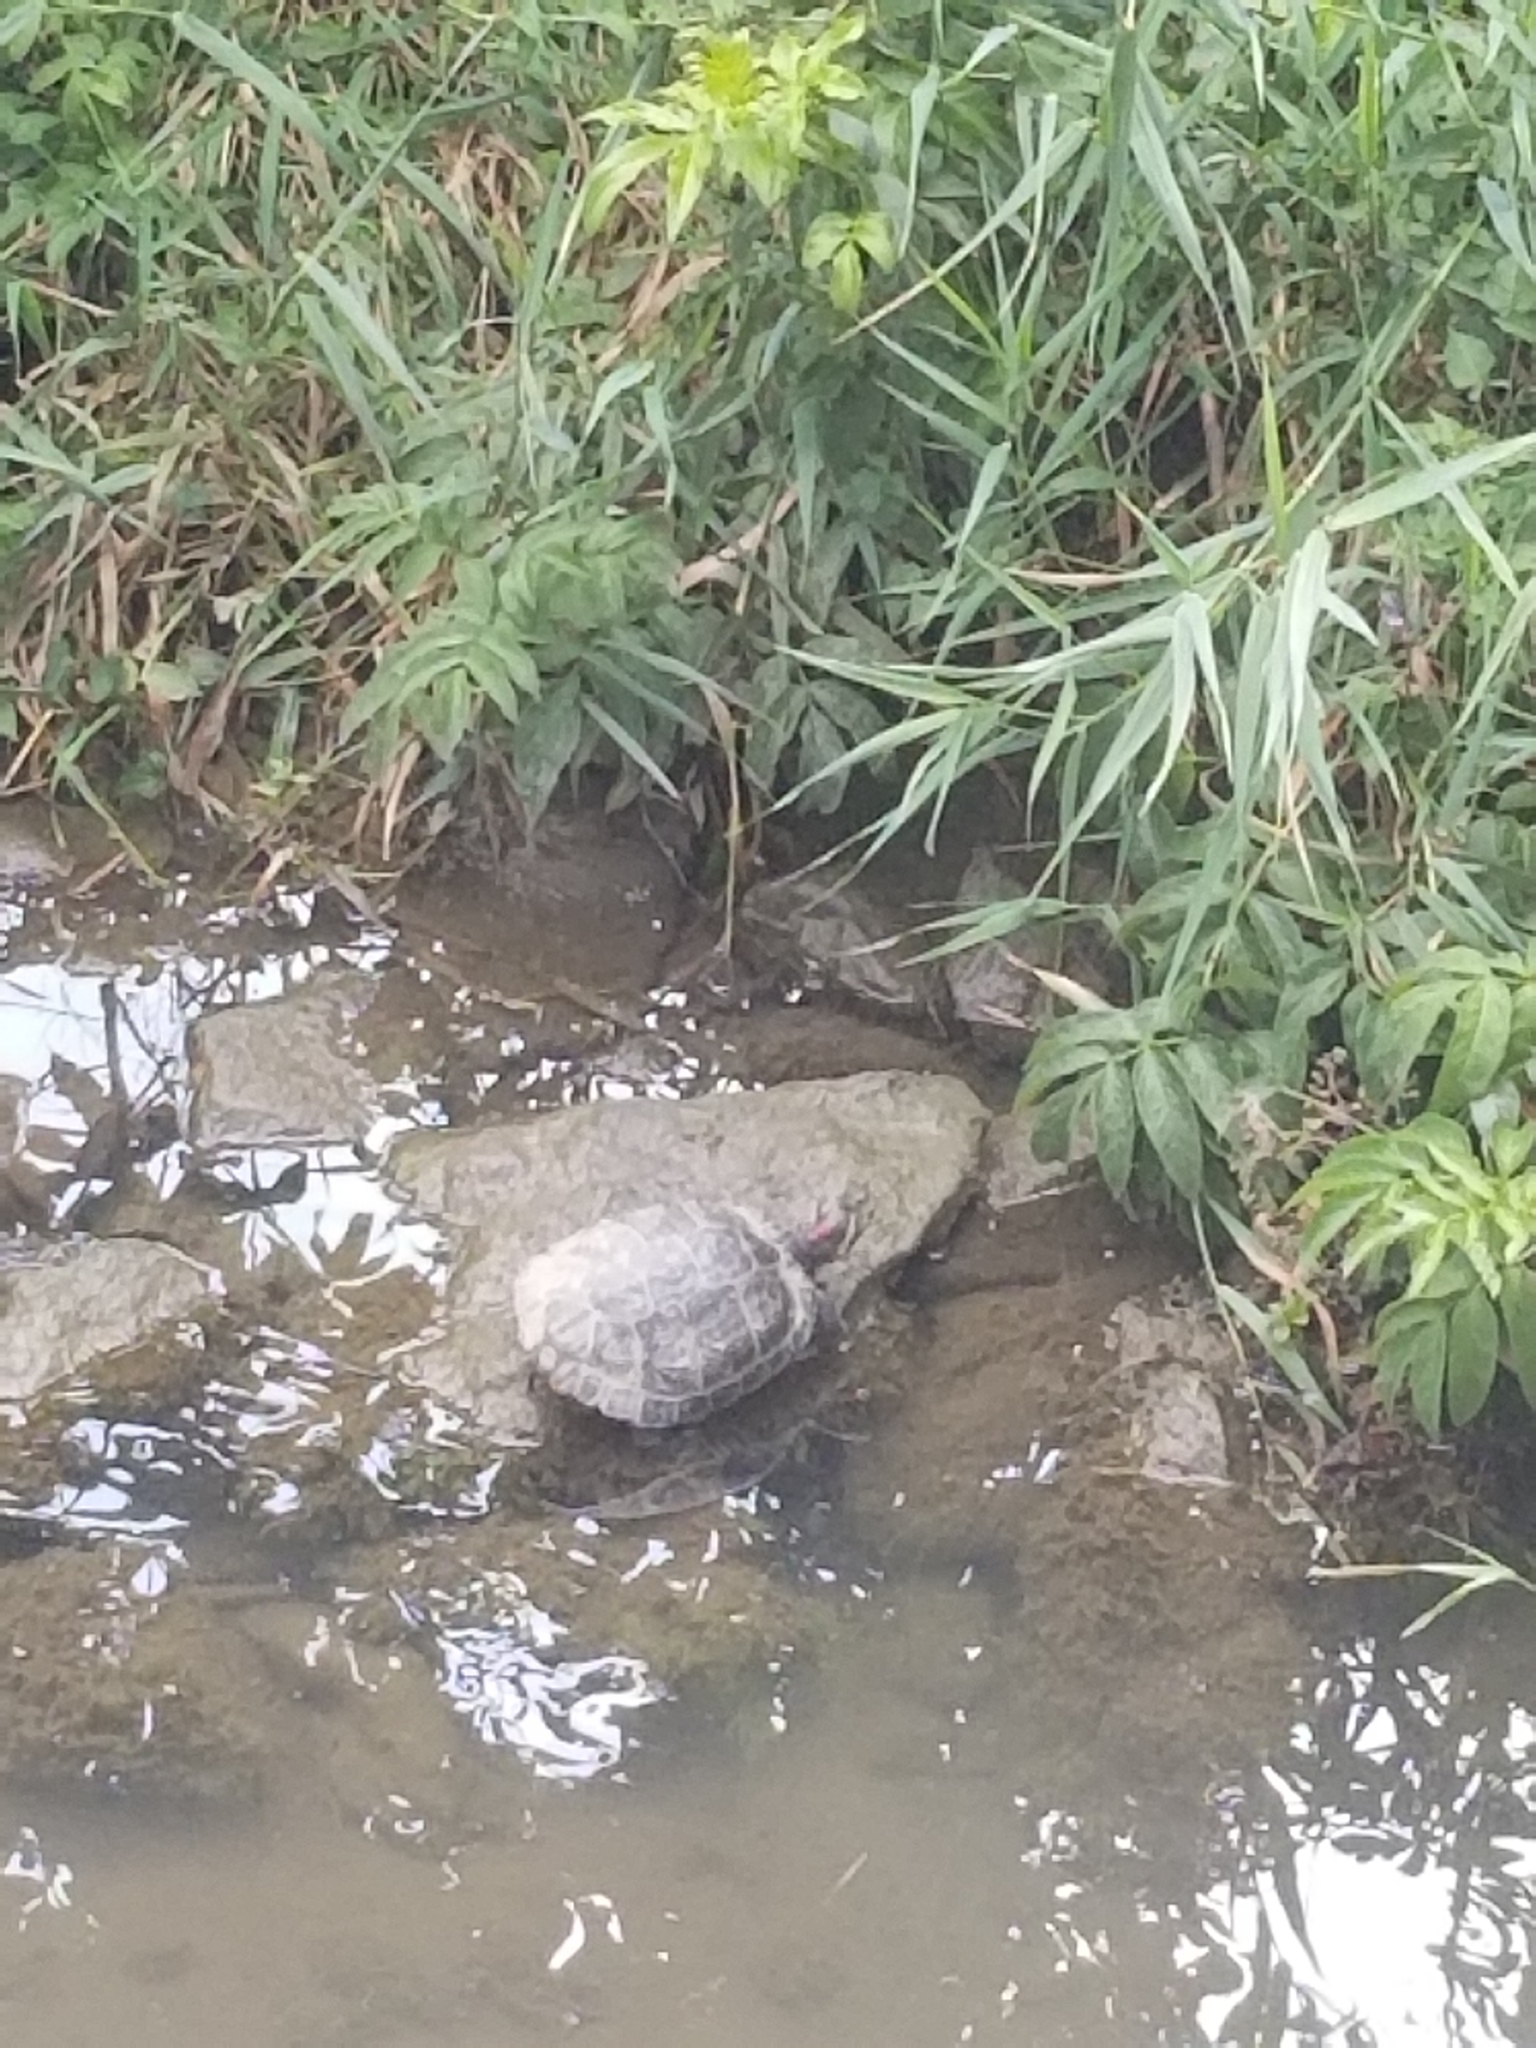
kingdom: Animalia
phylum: Chordata
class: Testudines
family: Emydidae
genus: Trachemys
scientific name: Trachemys scripta
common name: Slider
